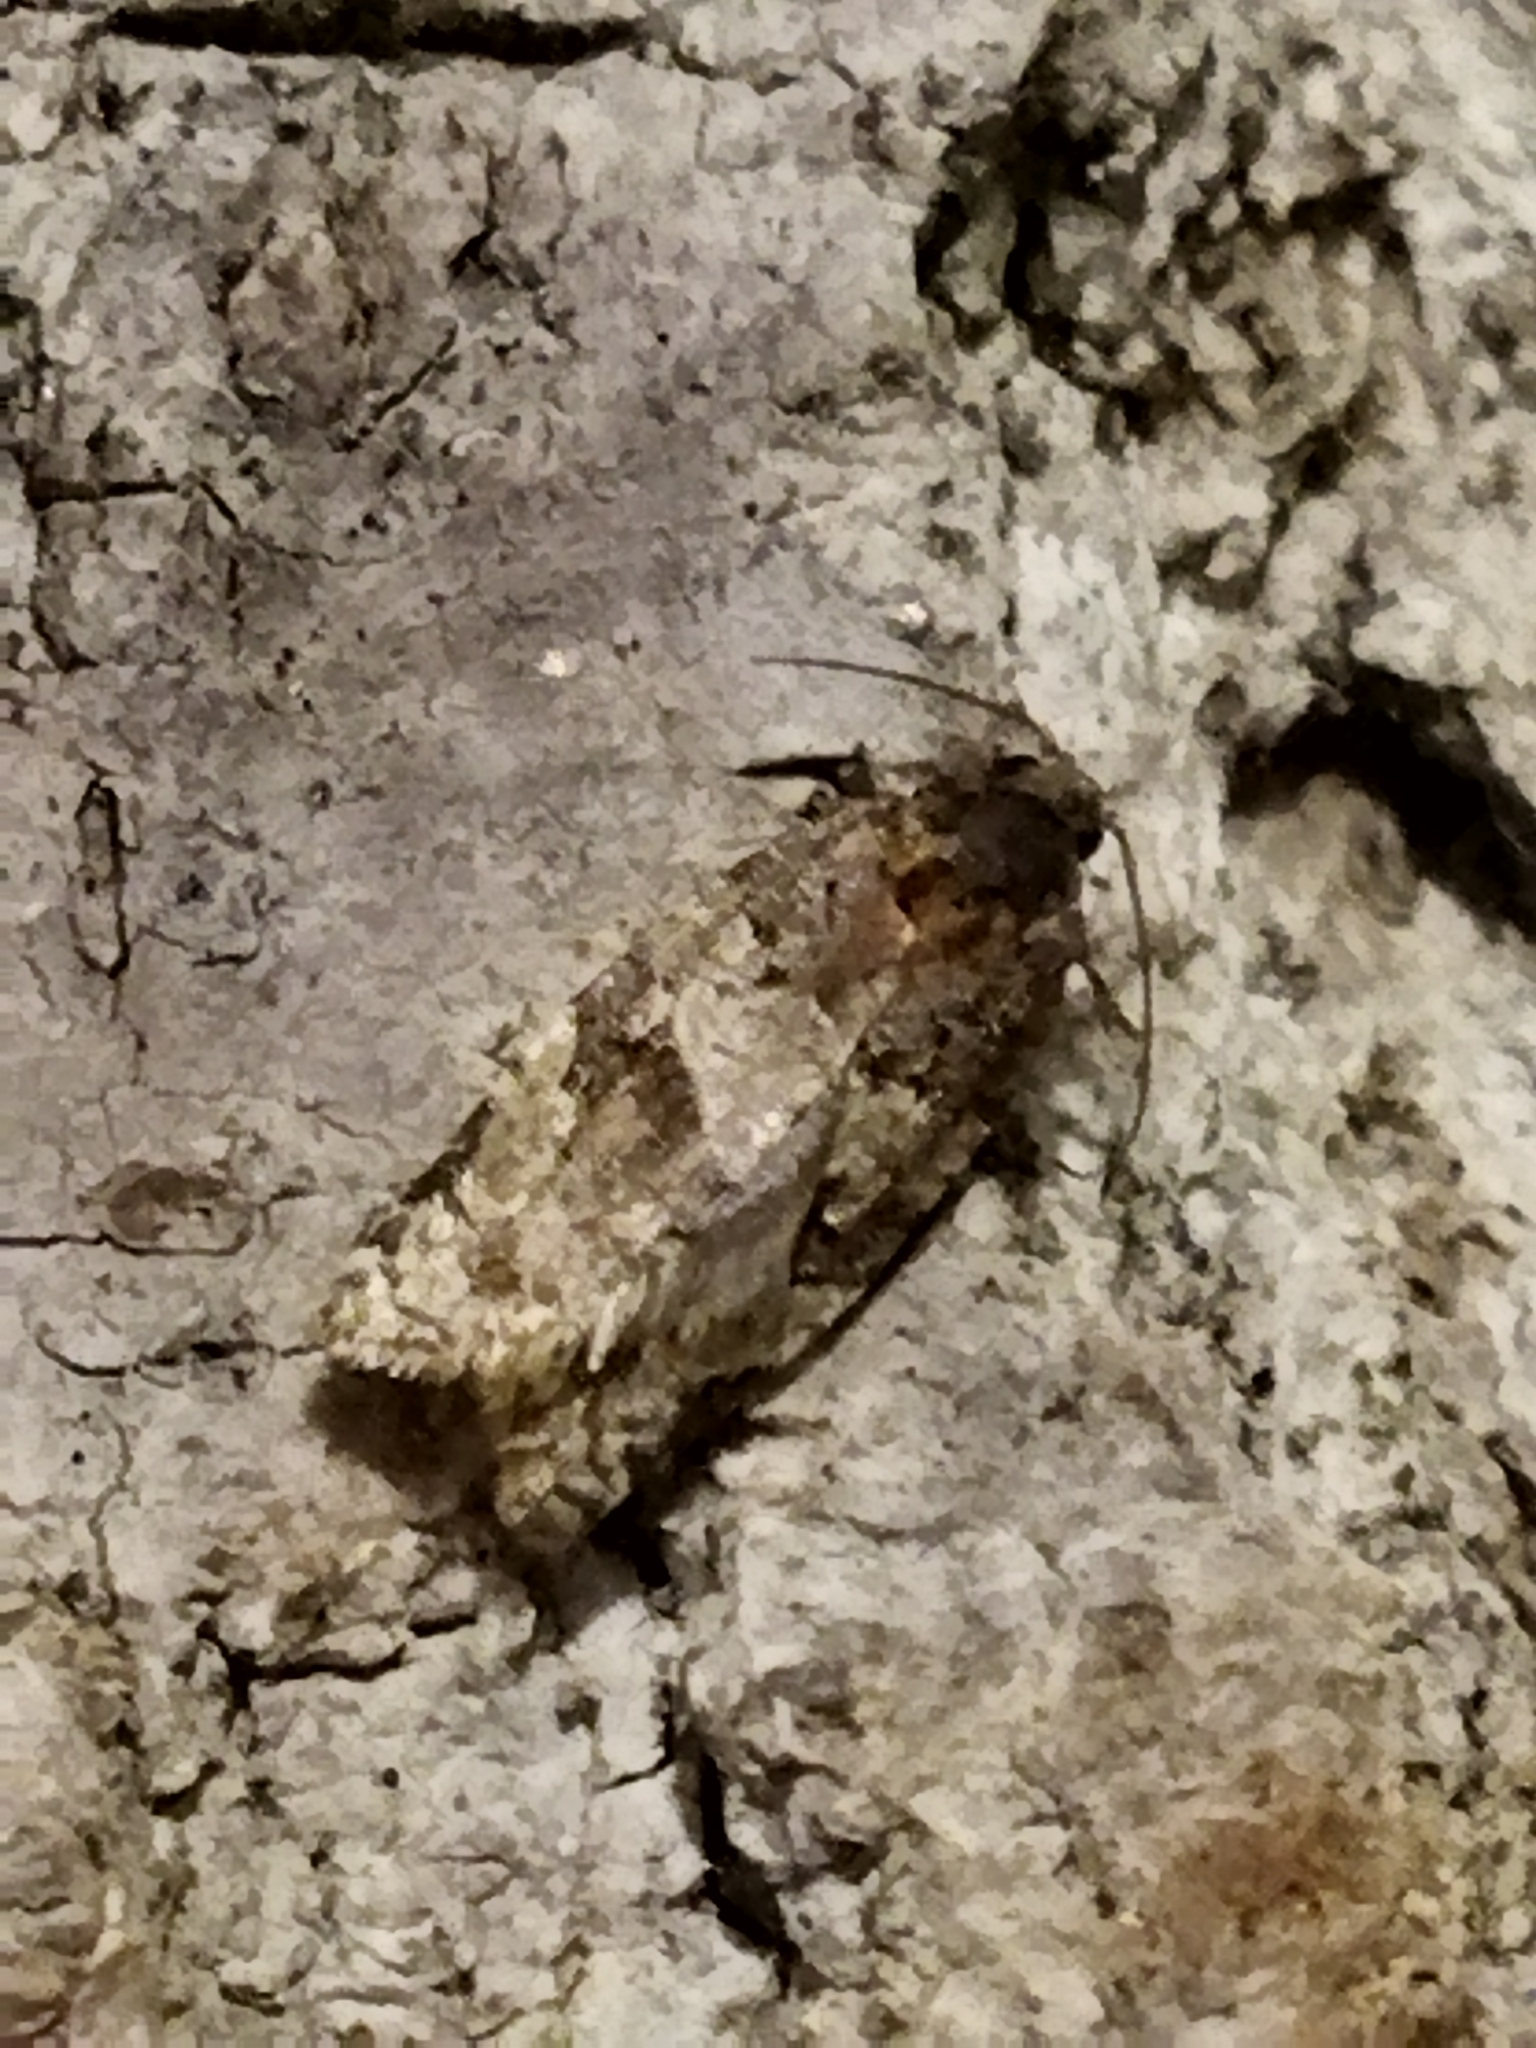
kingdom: Animalia
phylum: Arthropoda
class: Insecta
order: Lepidoptera
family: Tortricidae
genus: Dichelia
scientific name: Dichelia histrionana
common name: Tortricid moth
